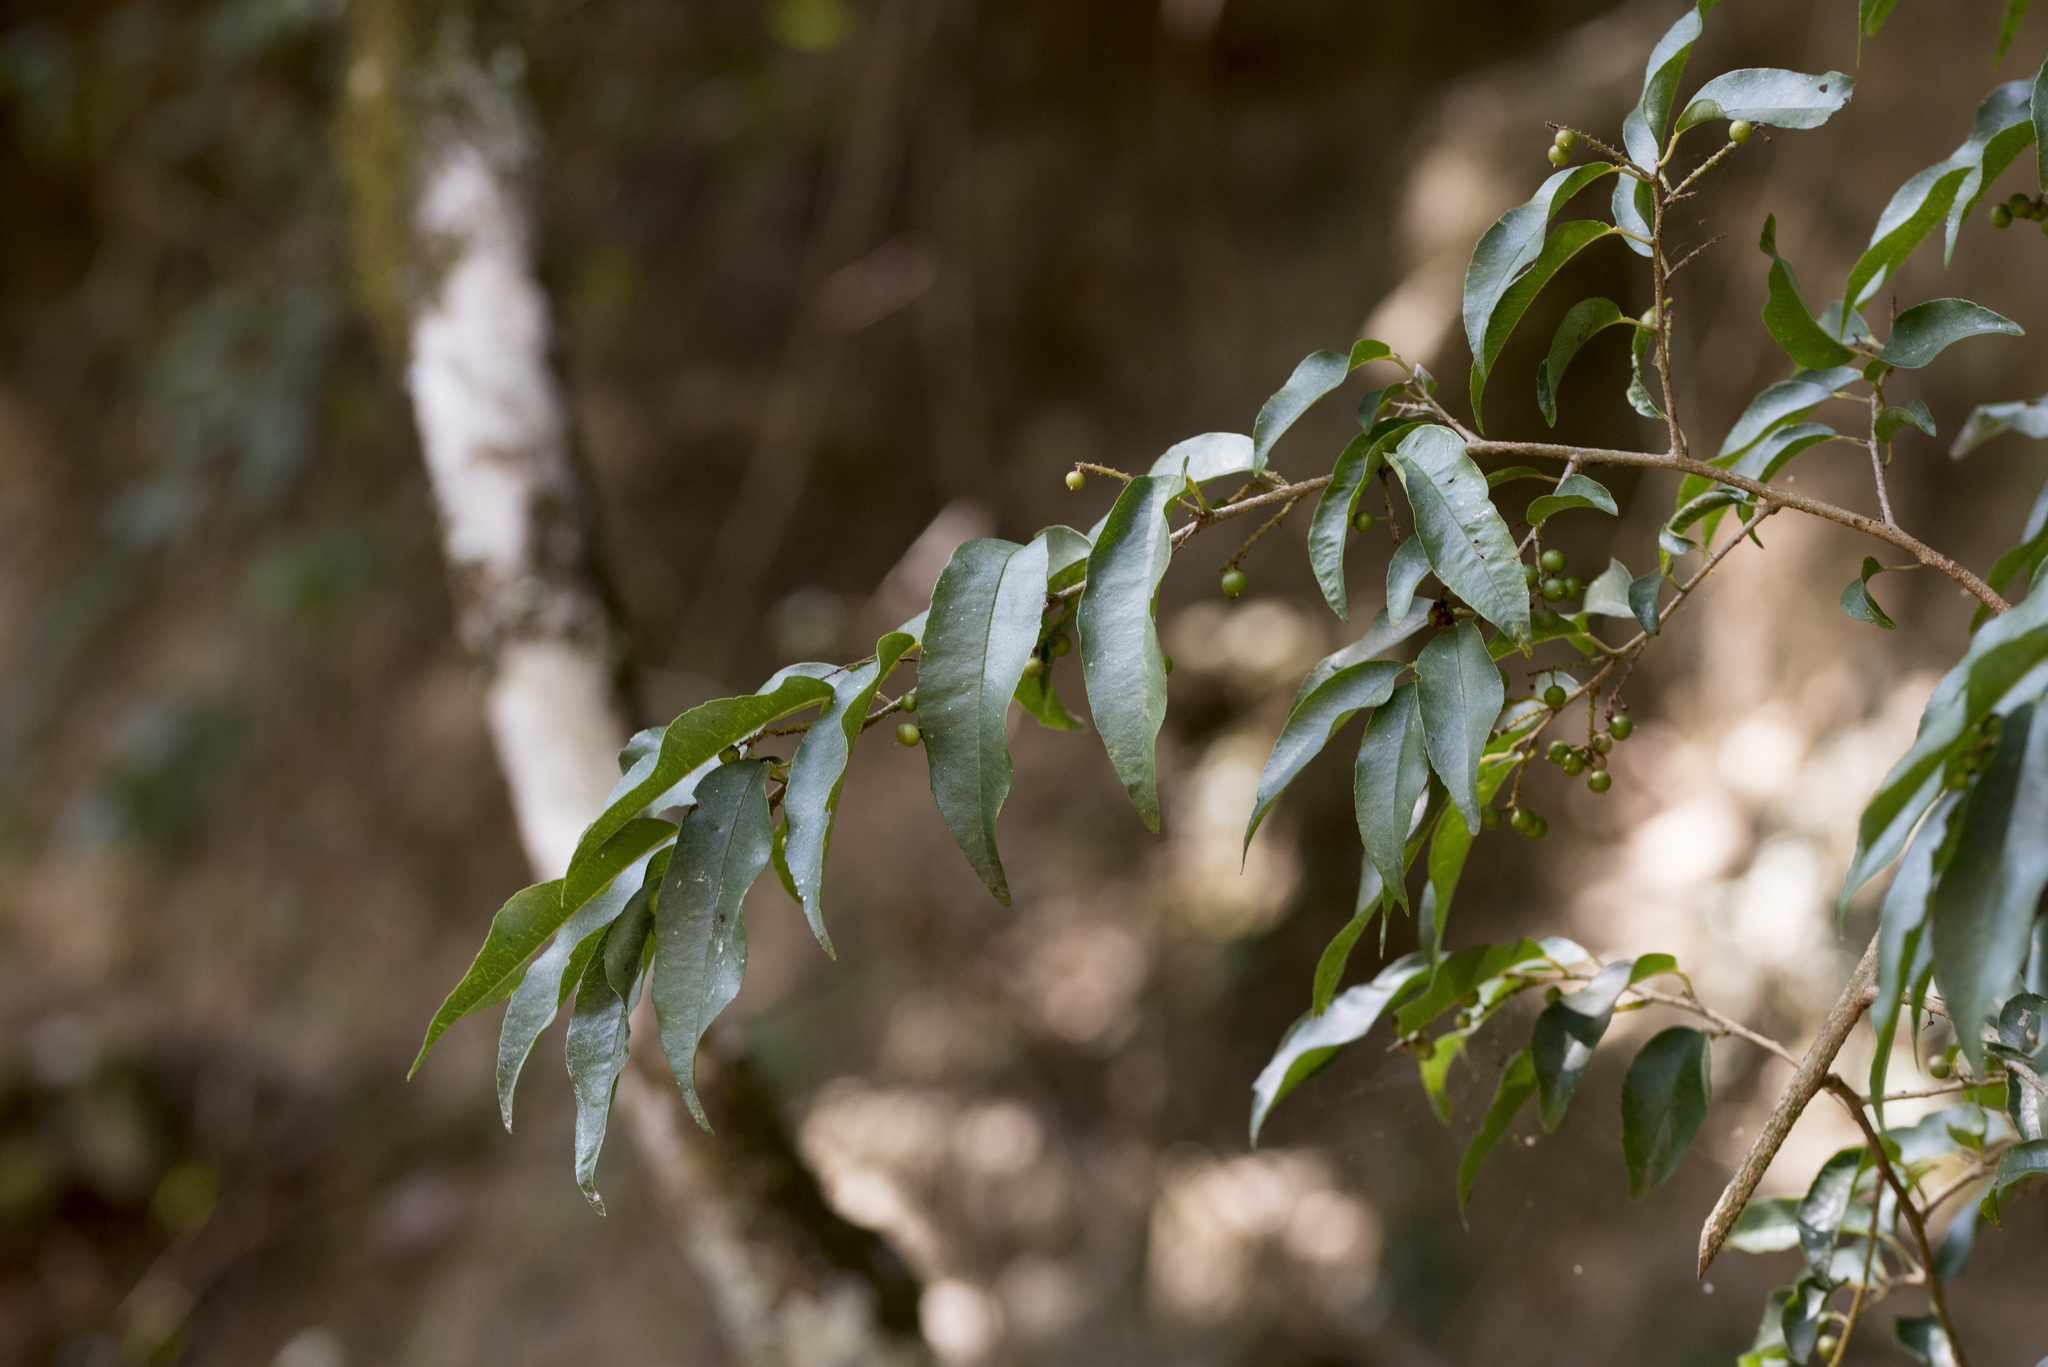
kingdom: Plantae
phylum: Tracheophyta
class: Magnoliopsida
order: Ericales
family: Primulaceae
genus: Embelia
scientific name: Embelia vestita
